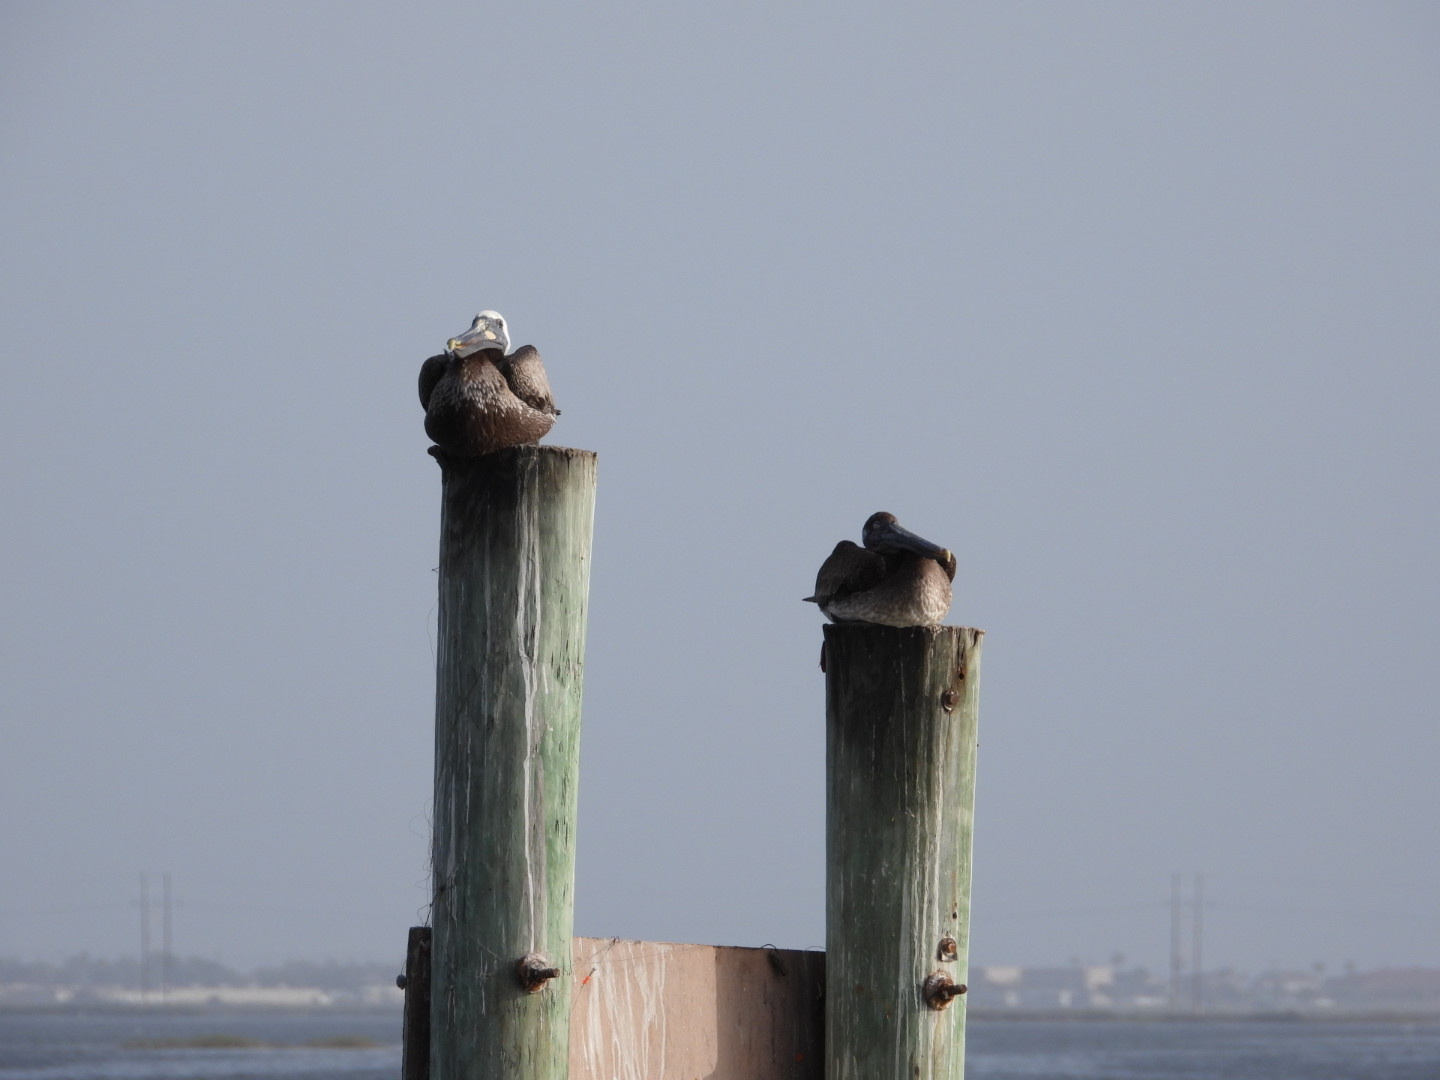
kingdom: Animalia
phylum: Chordata
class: Aves
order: Pelecaniformes
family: Pelecanidae
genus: Pelecanus
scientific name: Pelecanus occidentalis
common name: Brown pelican
